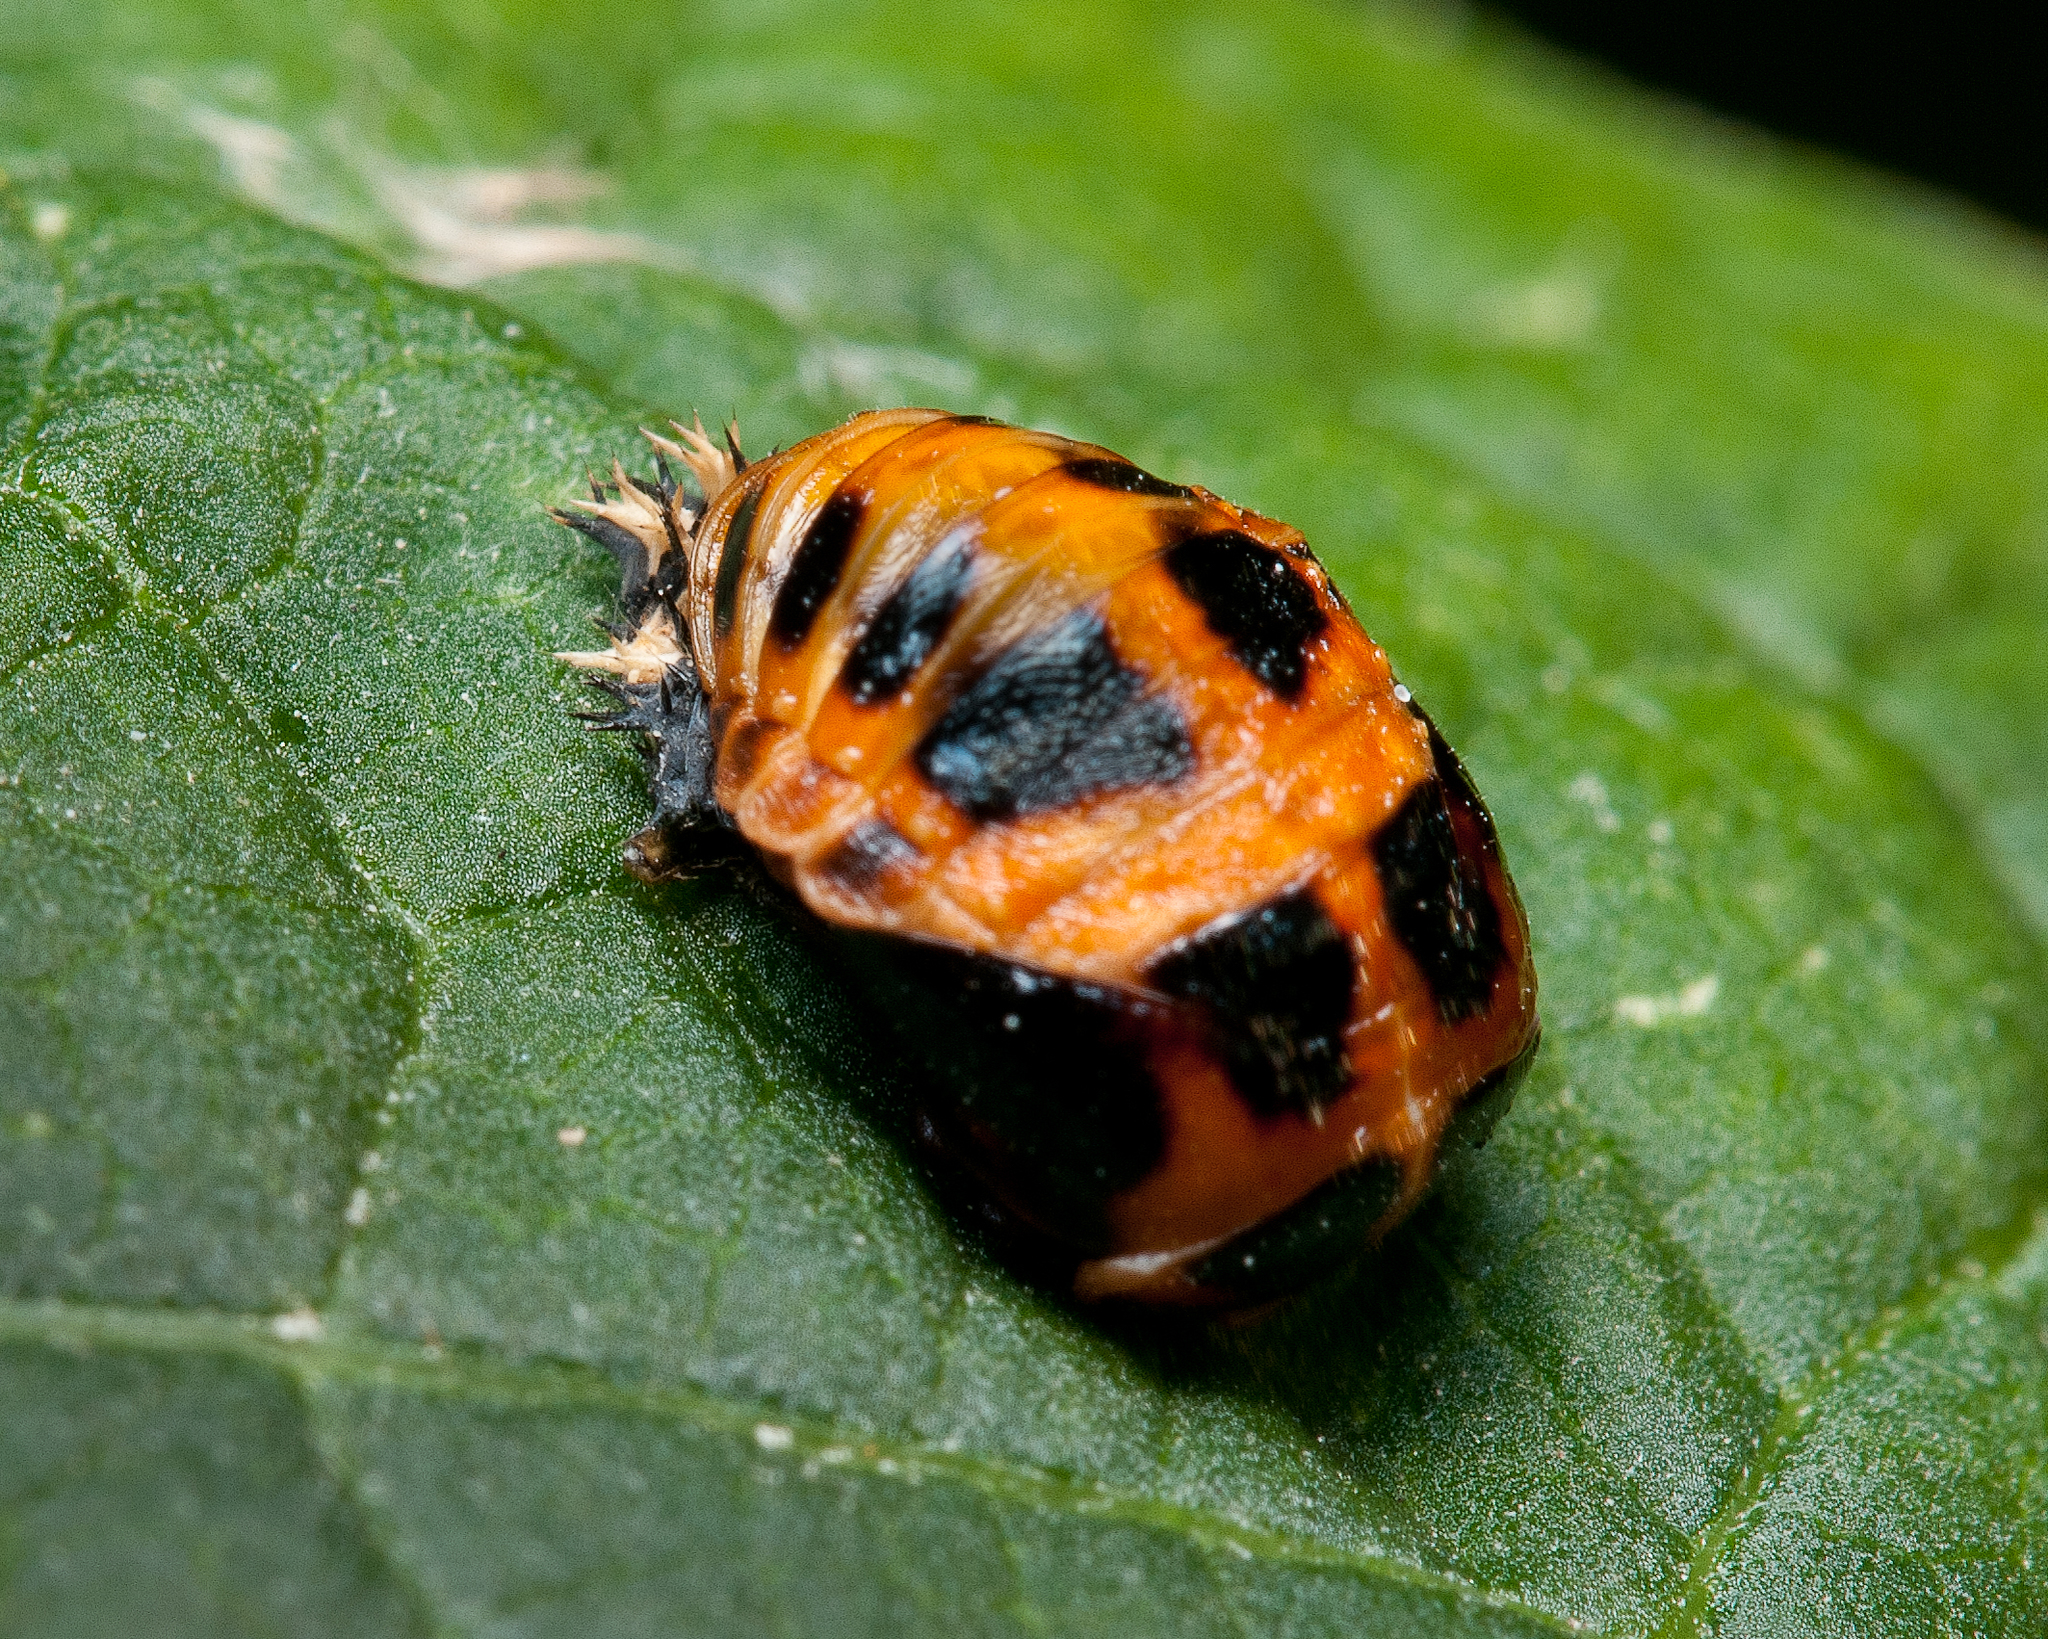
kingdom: Animalia
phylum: Arthropoda
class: Insecta
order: Coleoptera
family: Coccinellidae
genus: Harmonia
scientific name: Harmonia axyridis
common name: Harlequin ladybird
